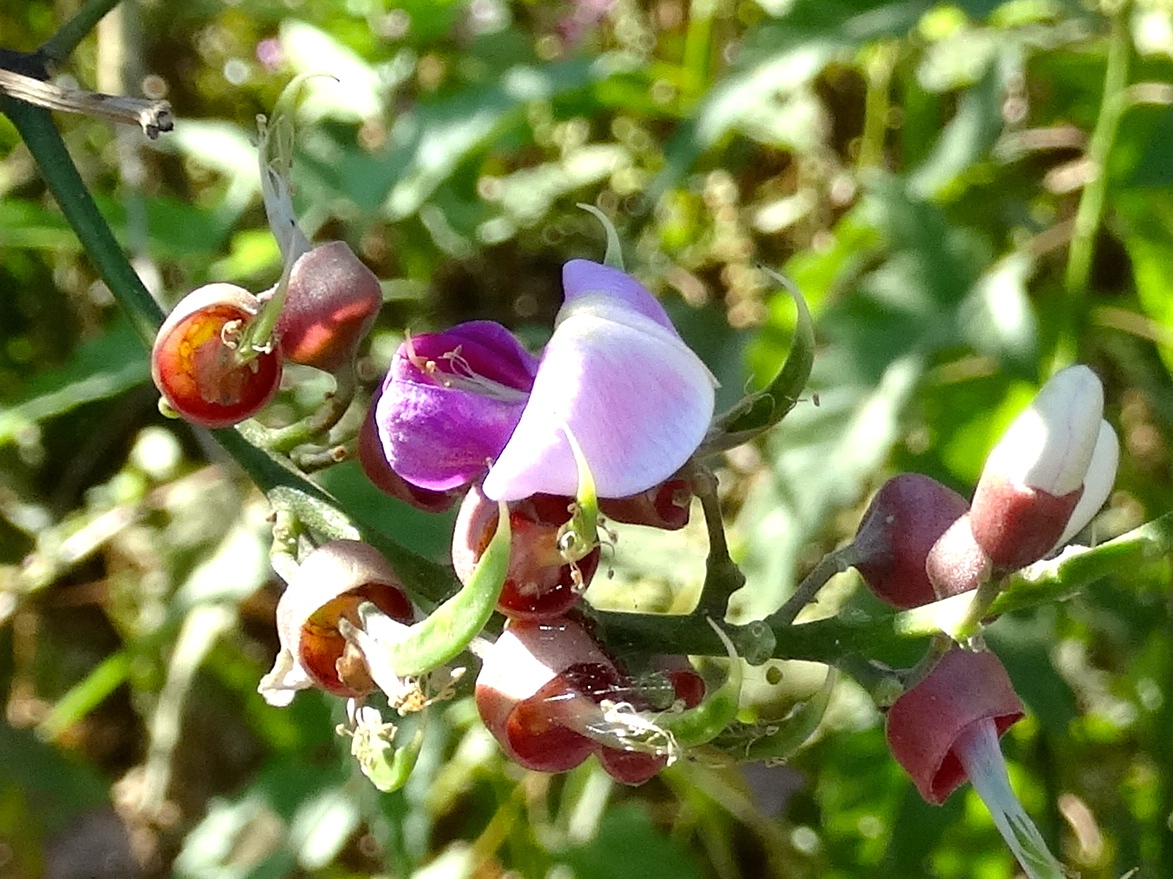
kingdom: Plantae
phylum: Tracheophyta
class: Magnoliopsida
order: Fabales
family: Fabaceae
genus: Lonchocarpus
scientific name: Lonchocarpus guatemalensis
